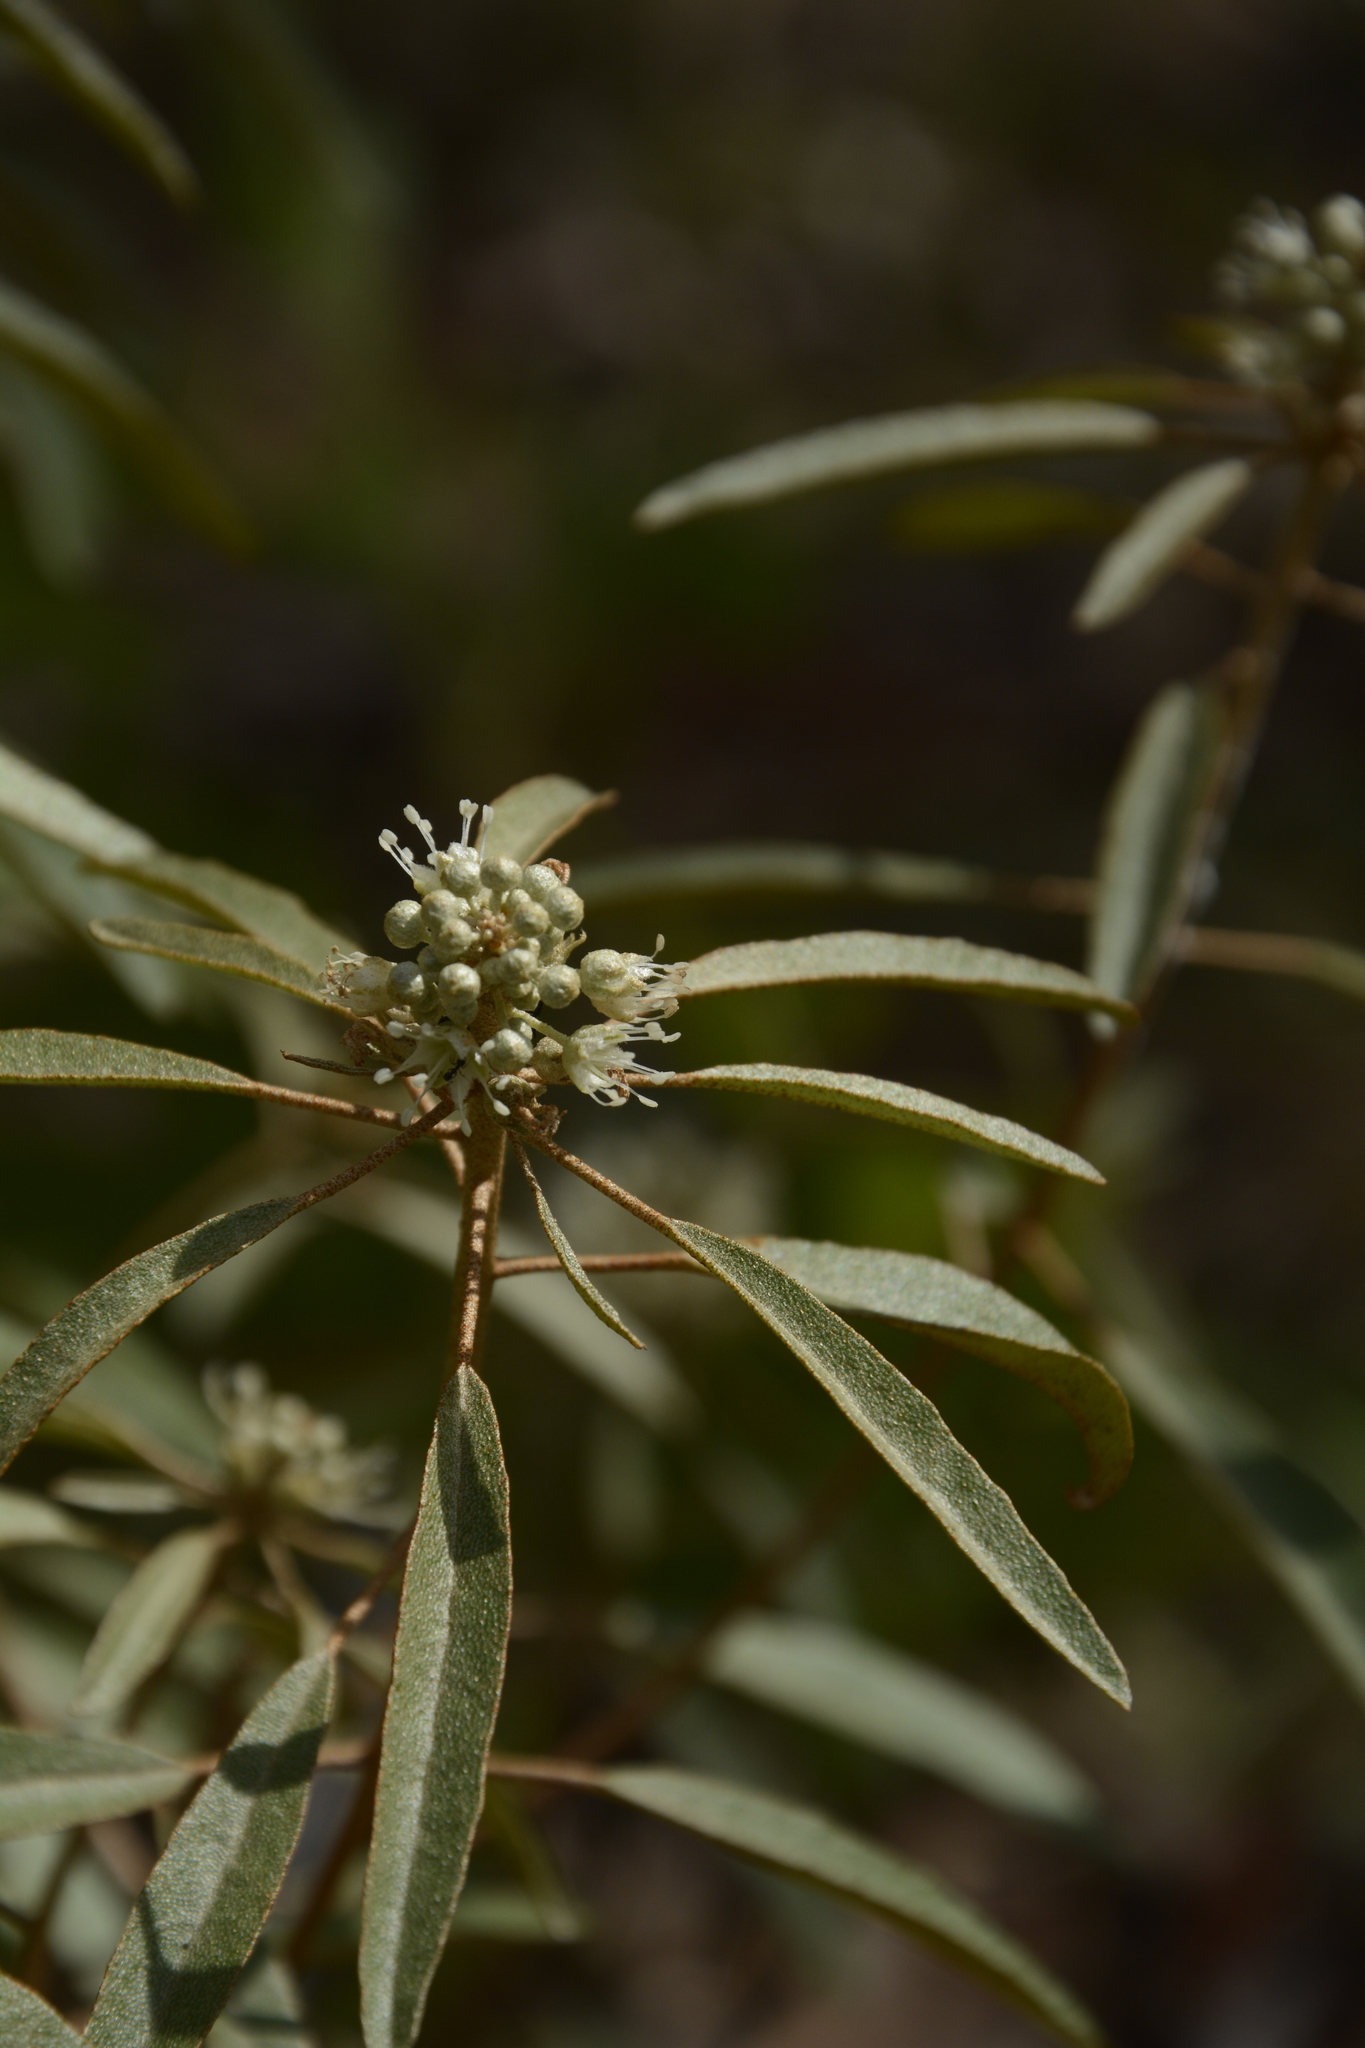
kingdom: Plantae
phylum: Tracheophyta
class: Magnoliopsida
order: Malpighiales
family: Euphorbiaceae
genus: Croton
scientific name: Croton argyranthemus
